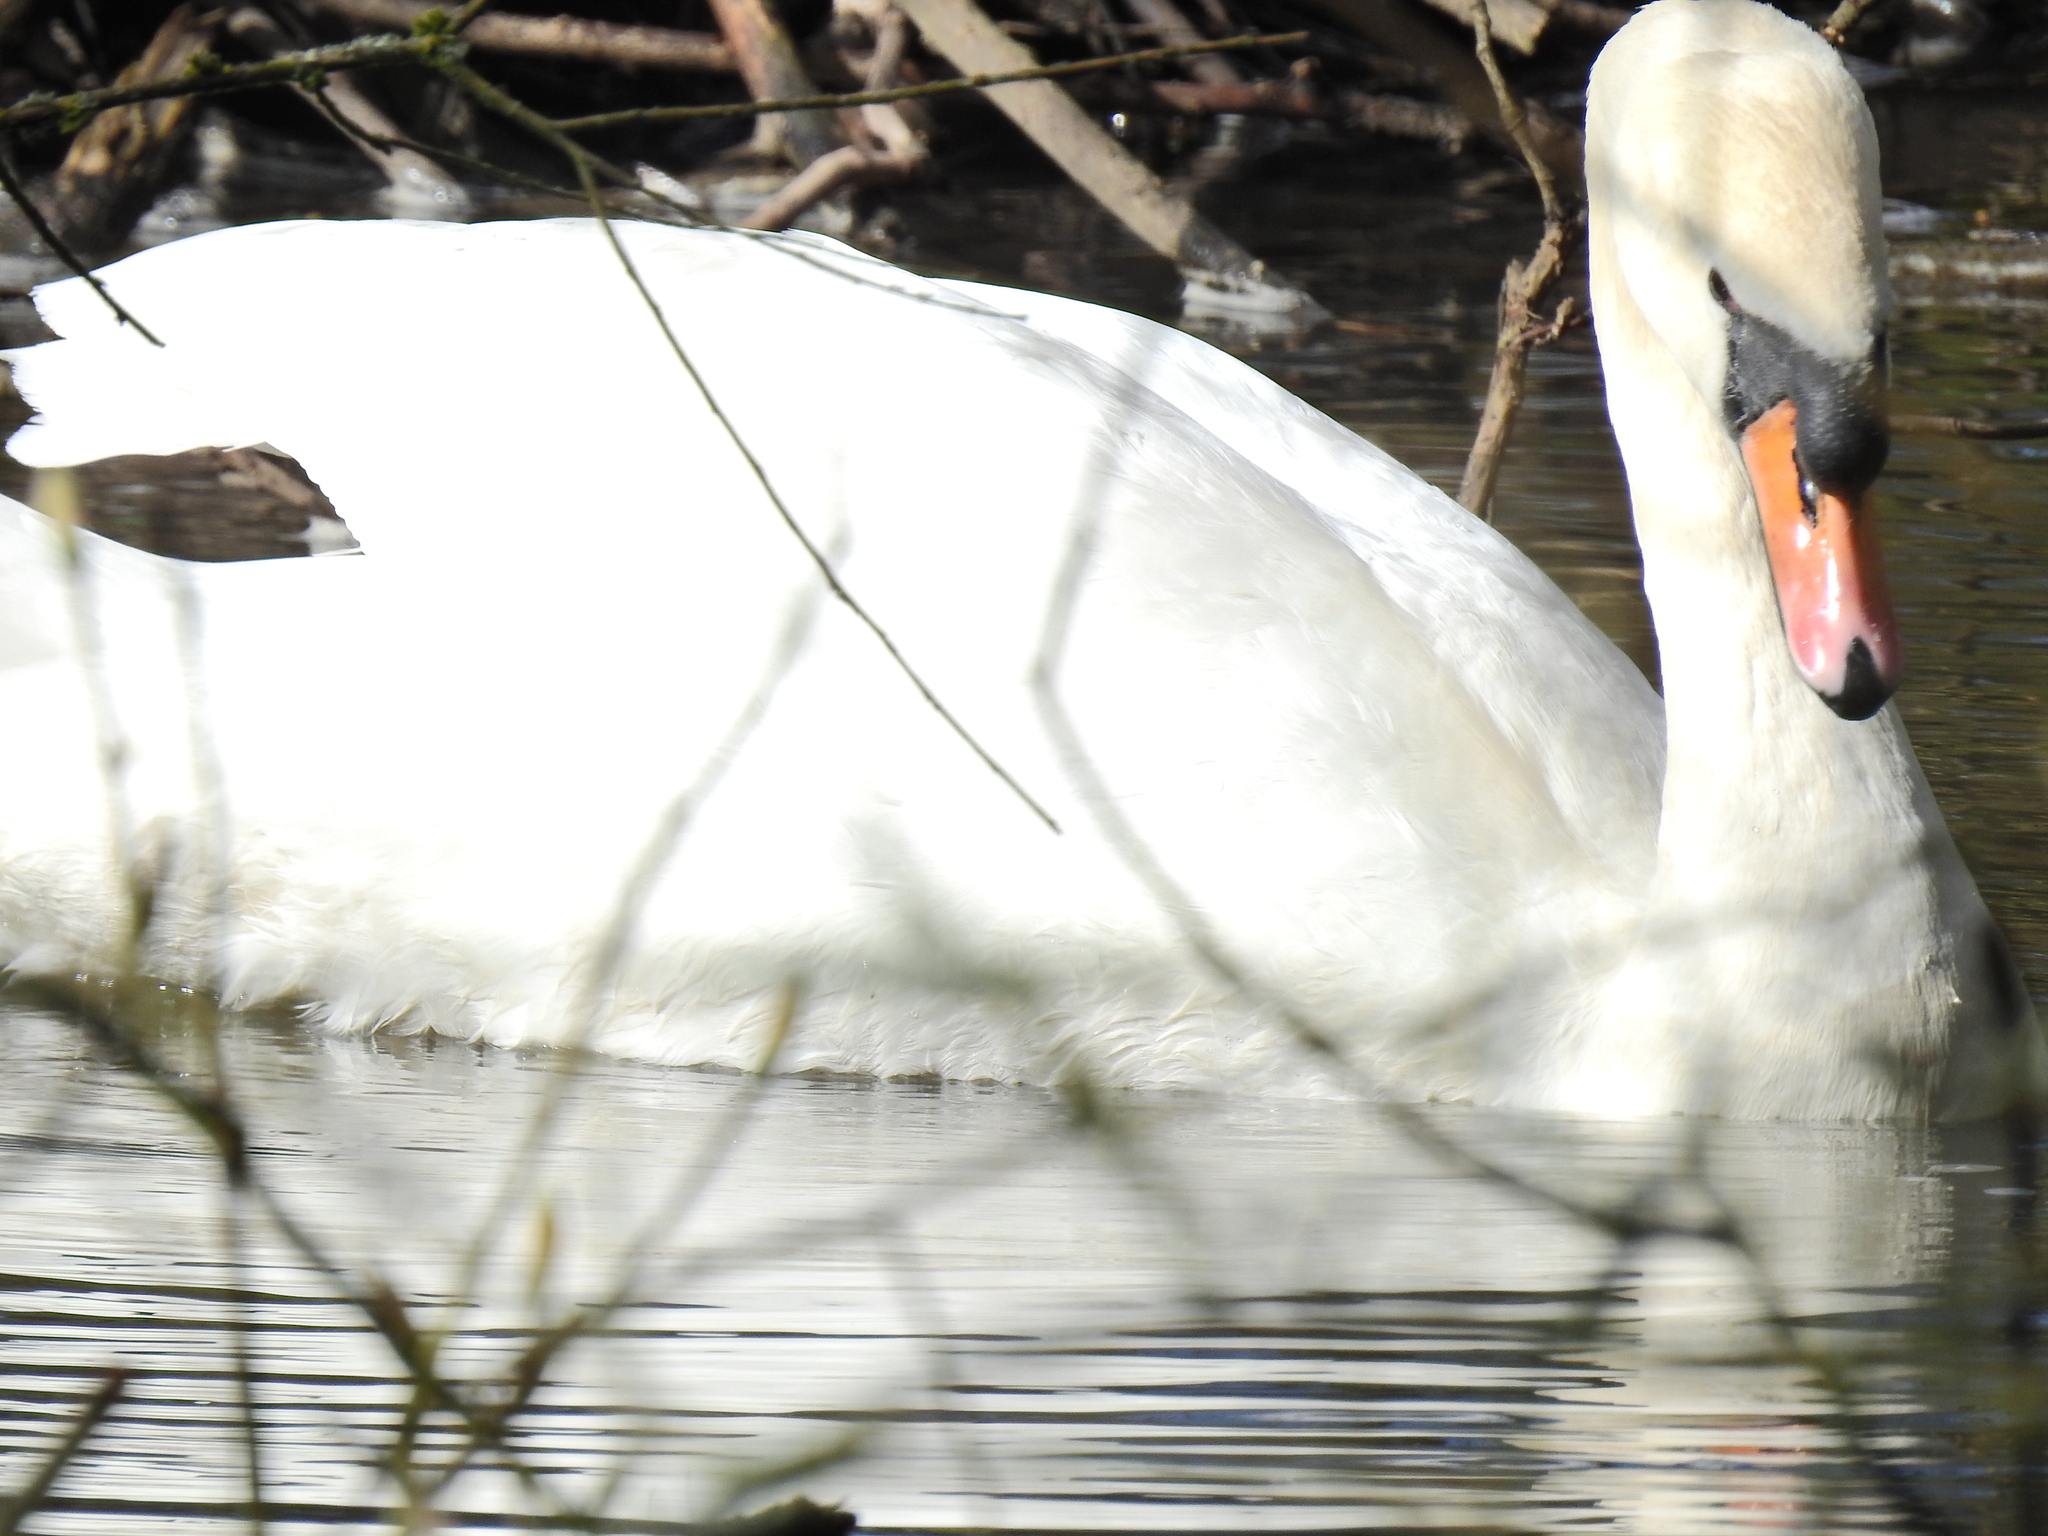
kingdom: Animalia
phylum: Chordata
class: Aves
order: Anseriformes
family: Anatidae
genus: Cygnus
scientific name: Cygnus olor
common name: Mute swan
